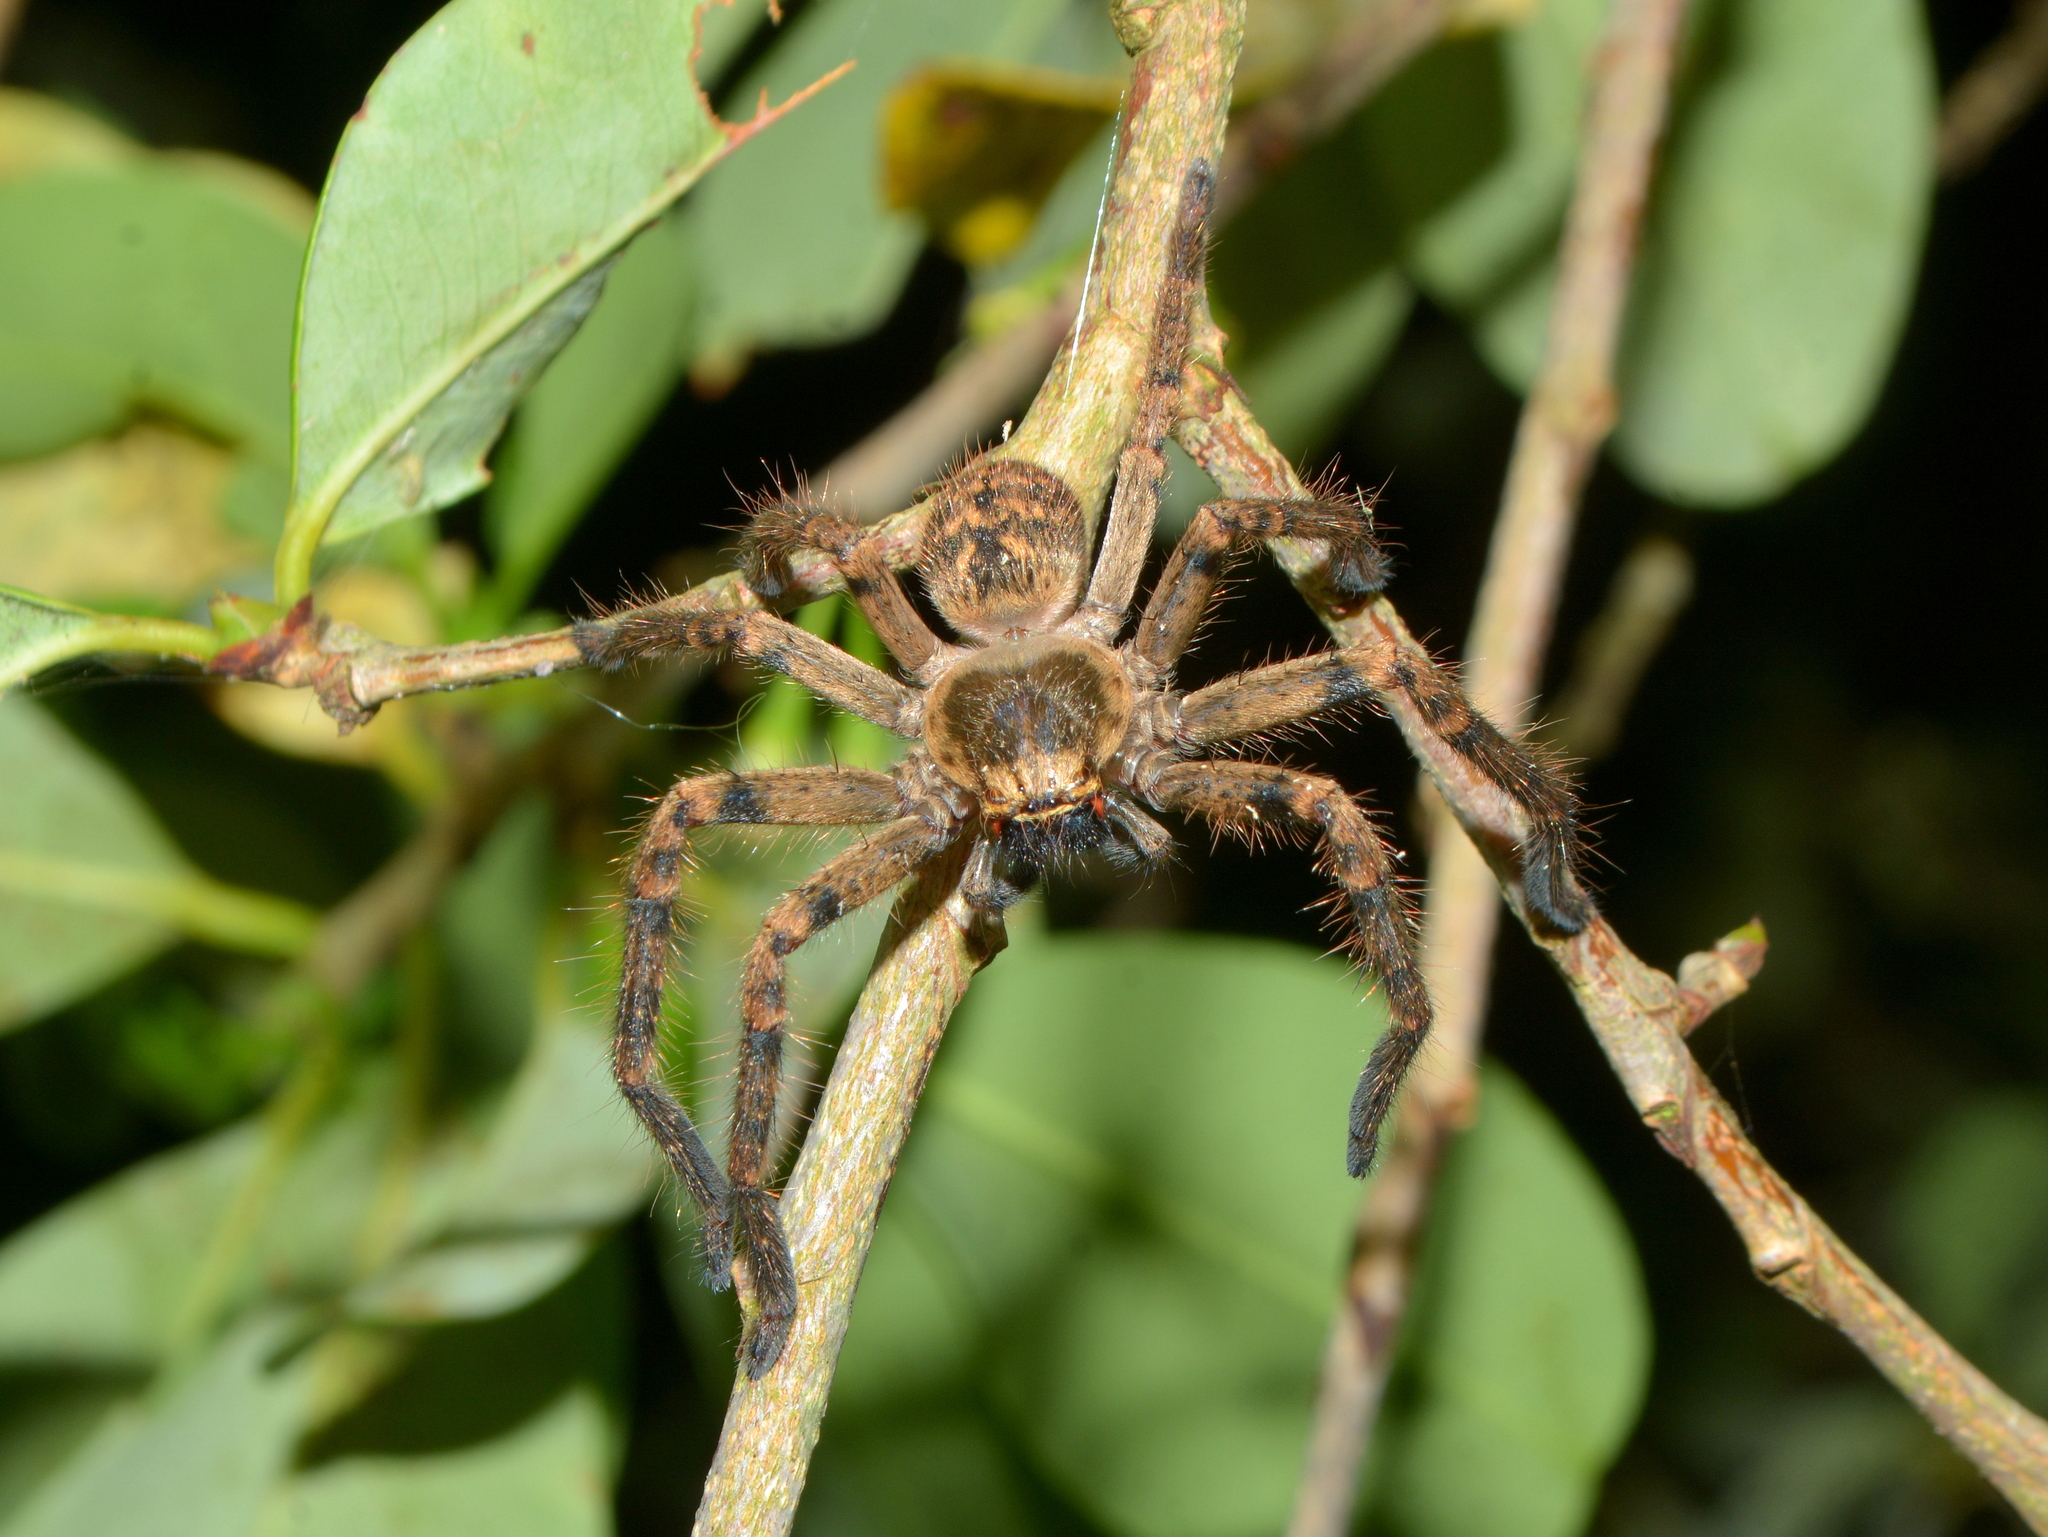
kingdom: Animalia
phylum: Arthropoda
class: Arachnida
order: Araneae
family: Sparassidae
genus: Polybetes
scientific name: Polybetes pythagoricus
